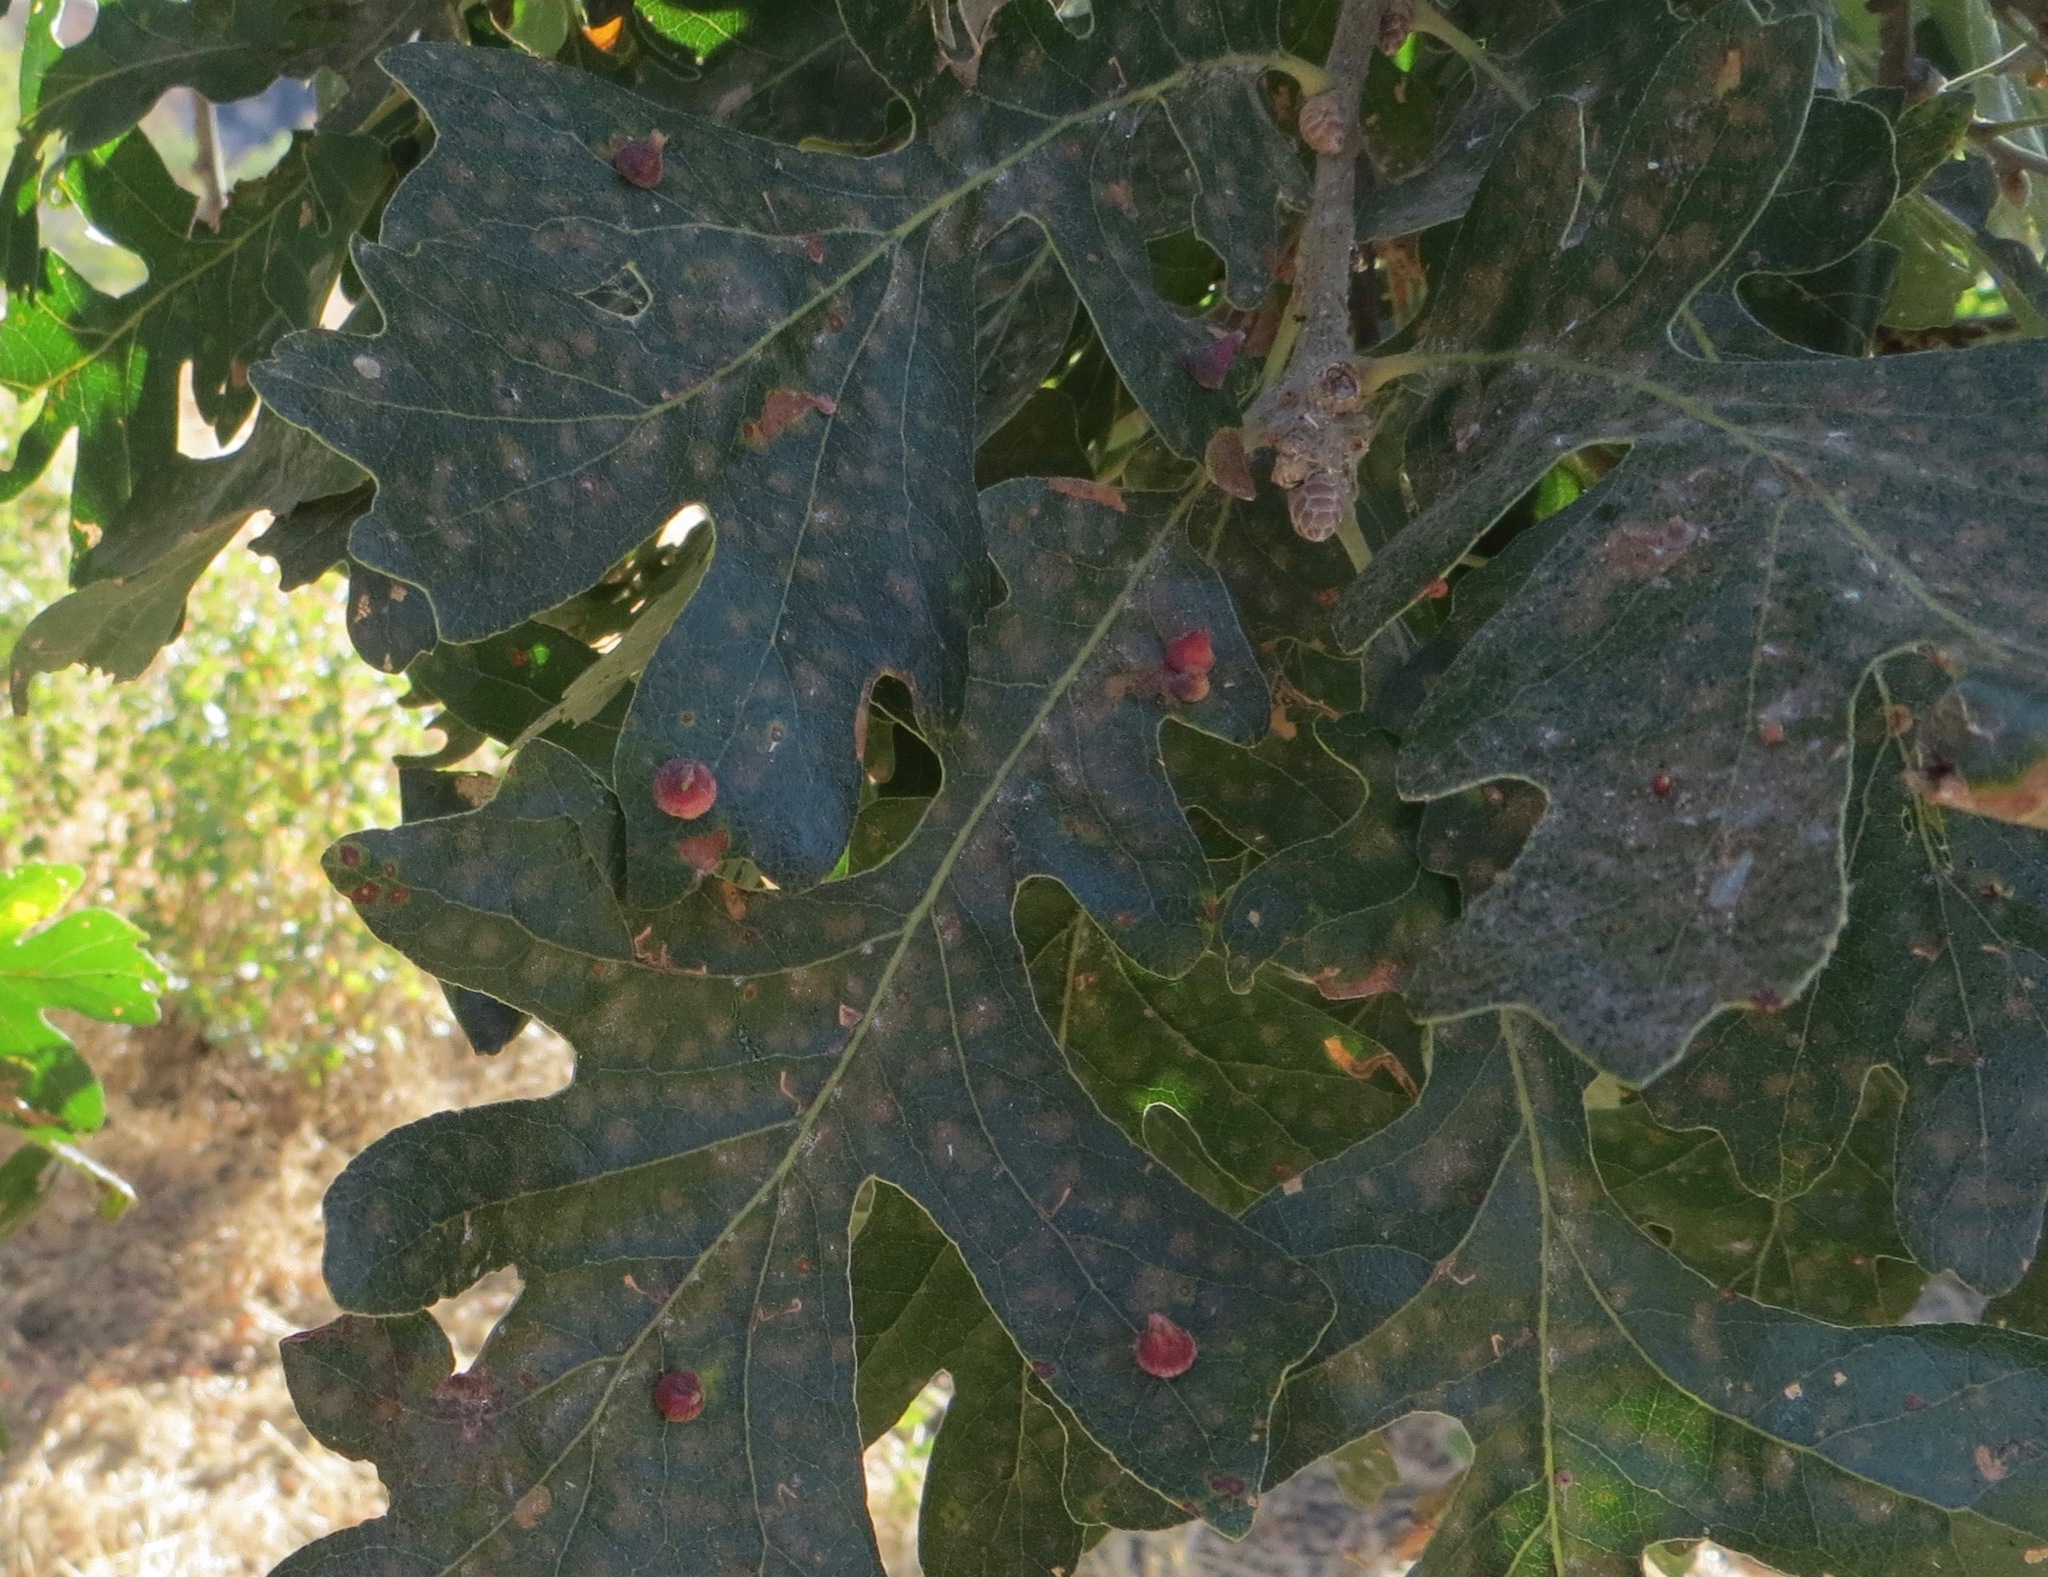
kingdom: Animalia
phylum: Arthropoda
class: Insecta
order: Hymenoptera
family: Cynipidae
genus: Andricus
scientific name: Andricus
